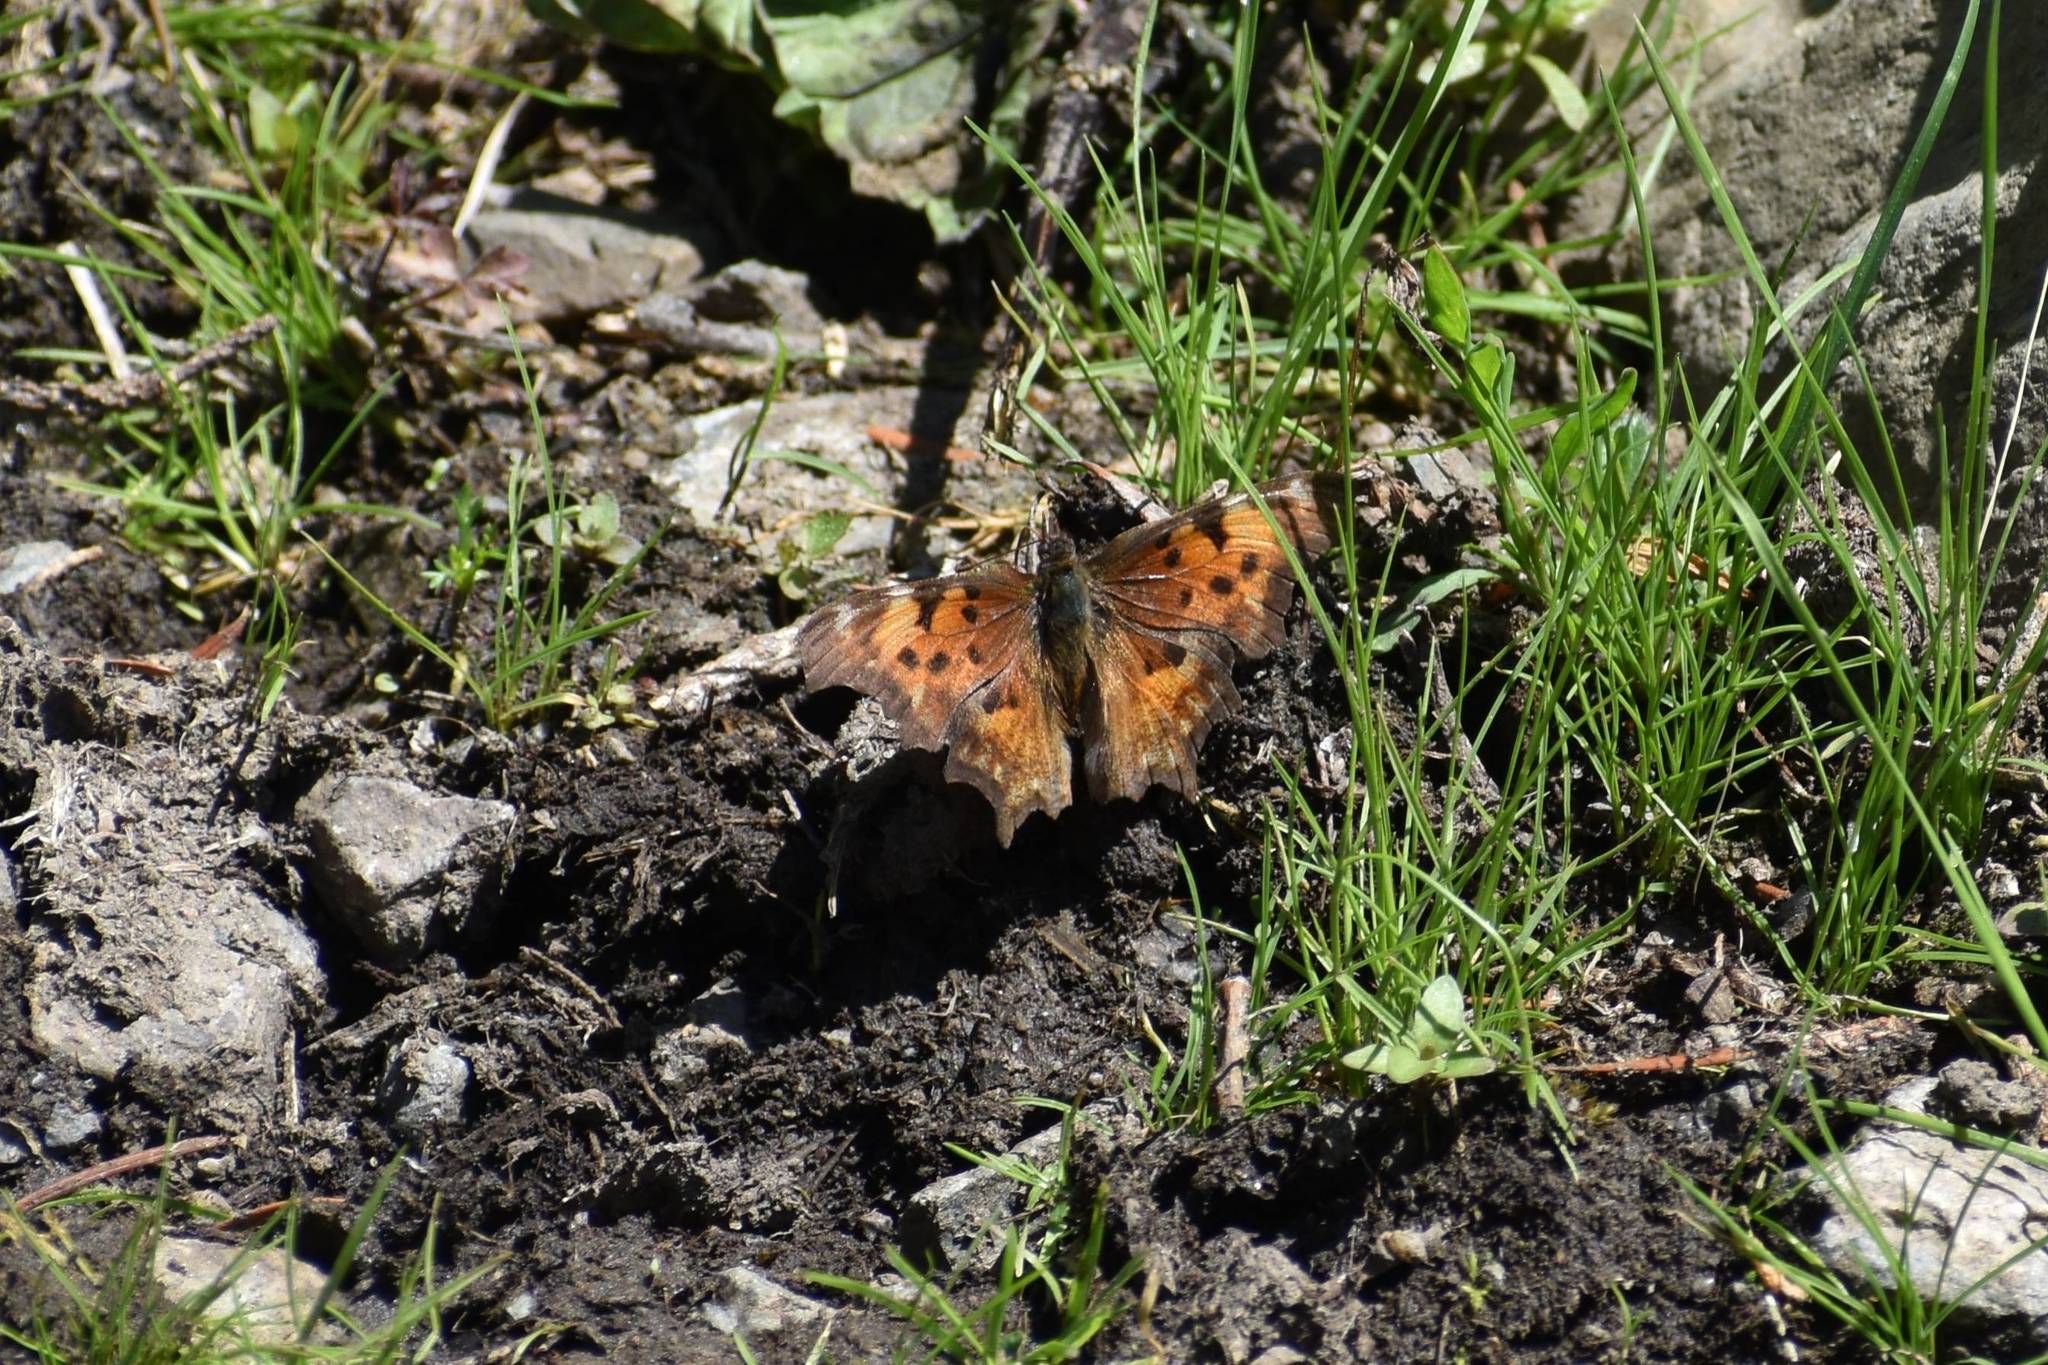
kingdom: Animalia
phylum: Arthropoda
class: Insecta
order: Lepidoptera
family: Nymphalidae
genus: Polygonia
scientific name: Polygonia gracilis
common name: Hoary comma
